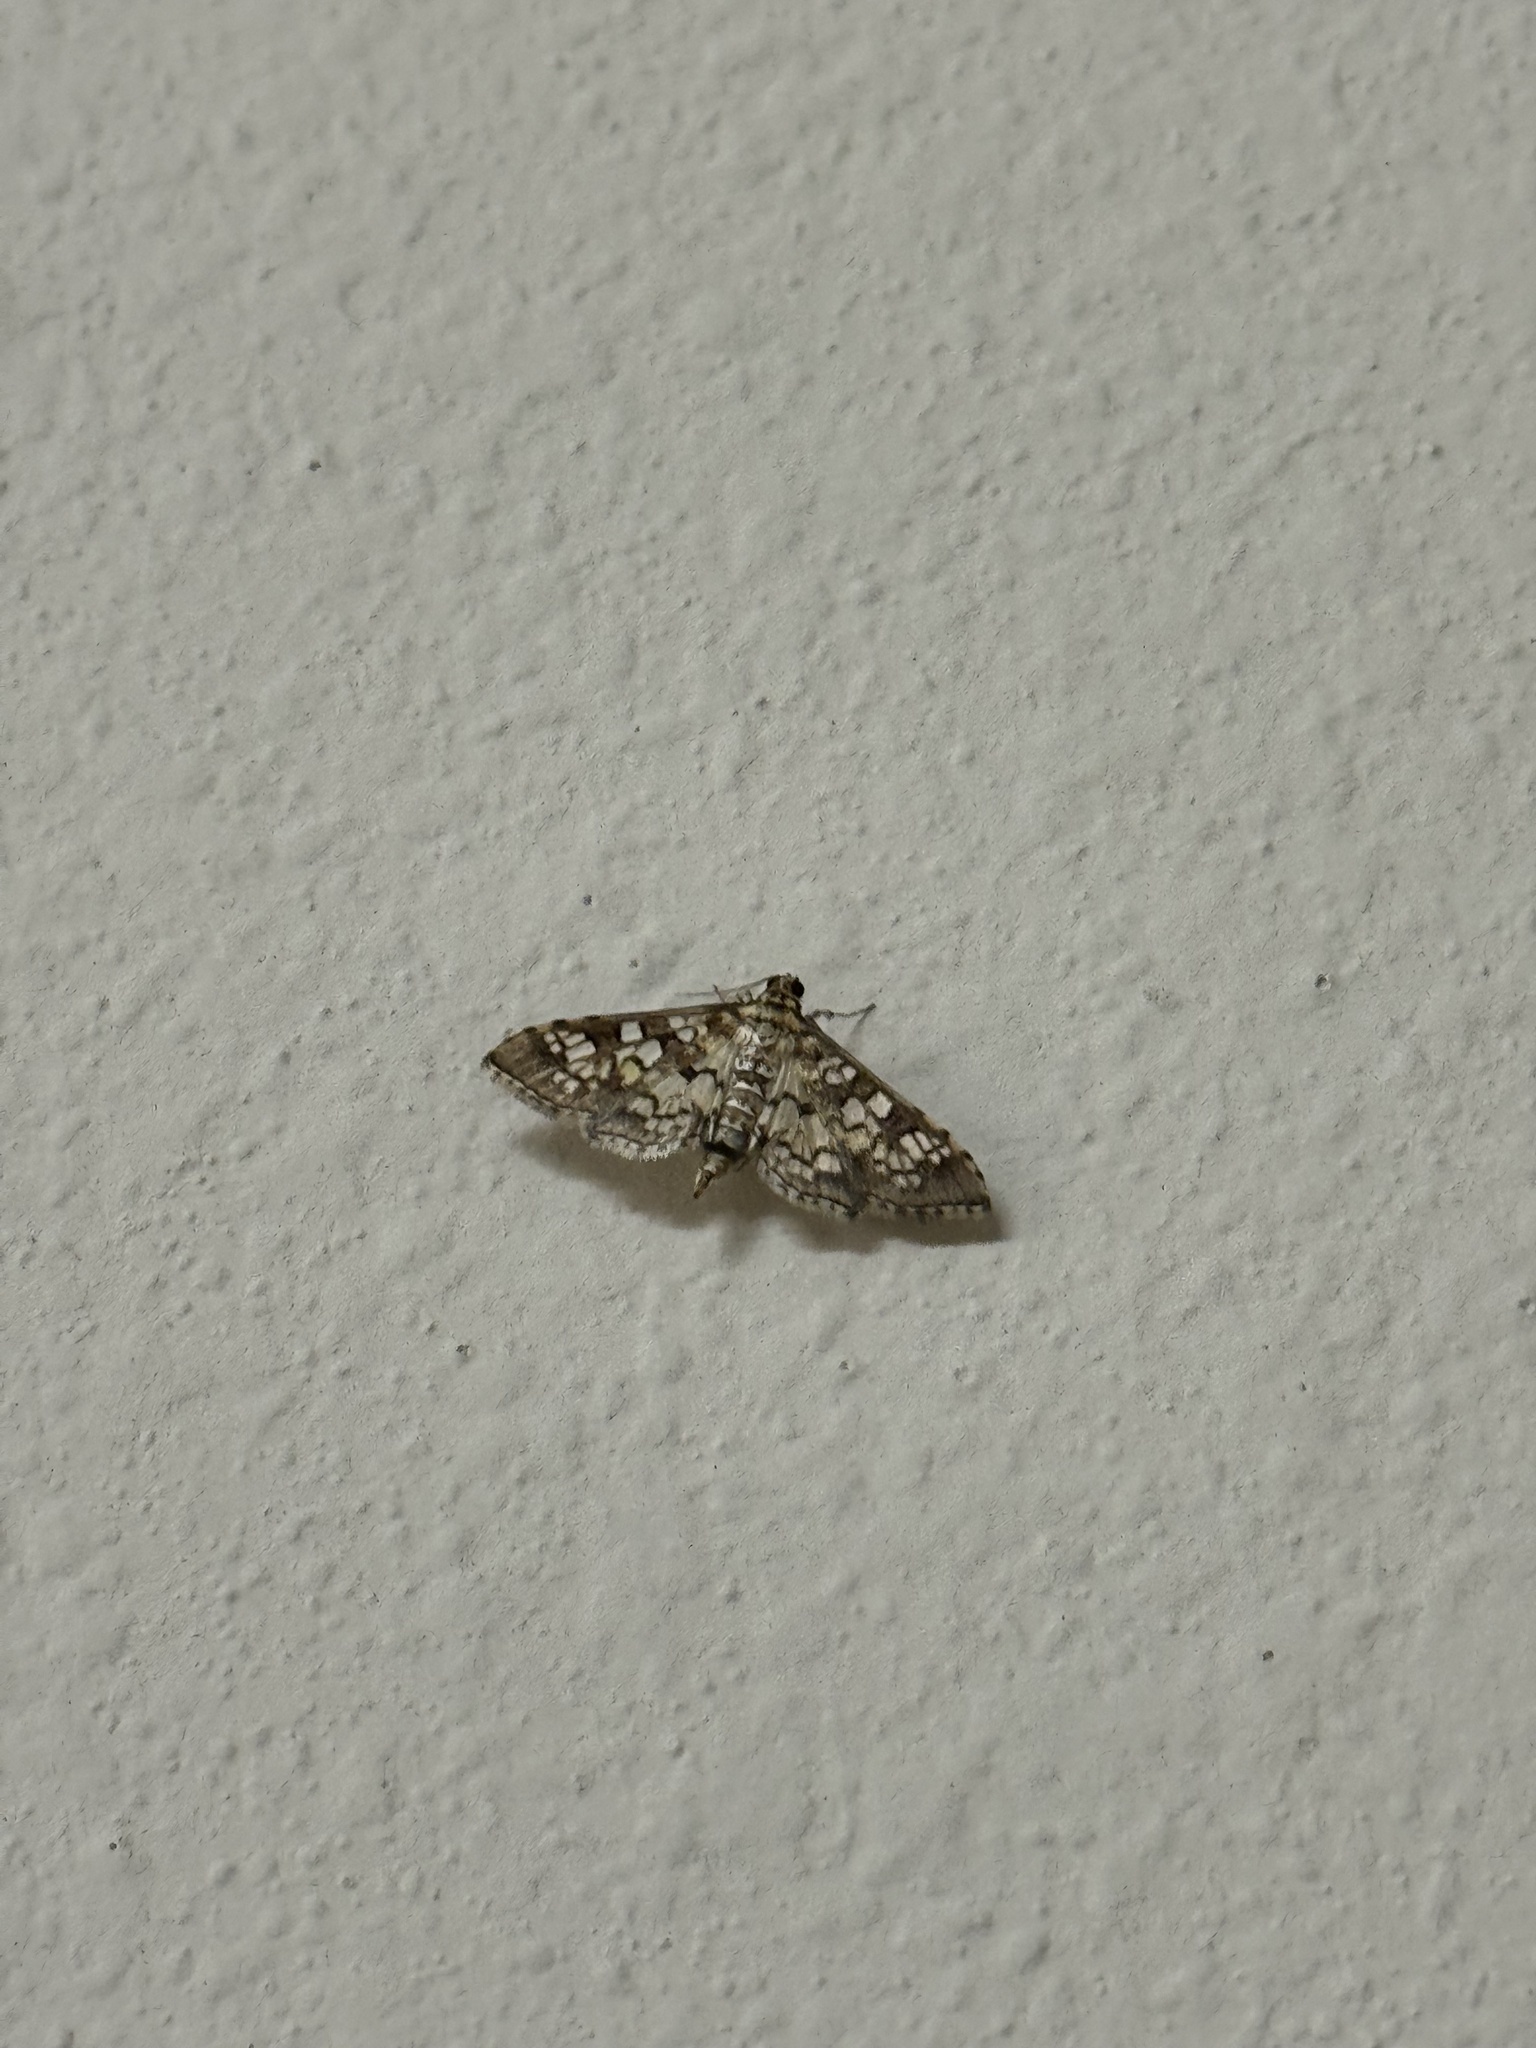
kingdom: Animalia
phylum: Arthropoda
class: Insecta
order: Lepidoptera
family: Crambidae
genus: Samea
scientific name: Samea ecclesialis
